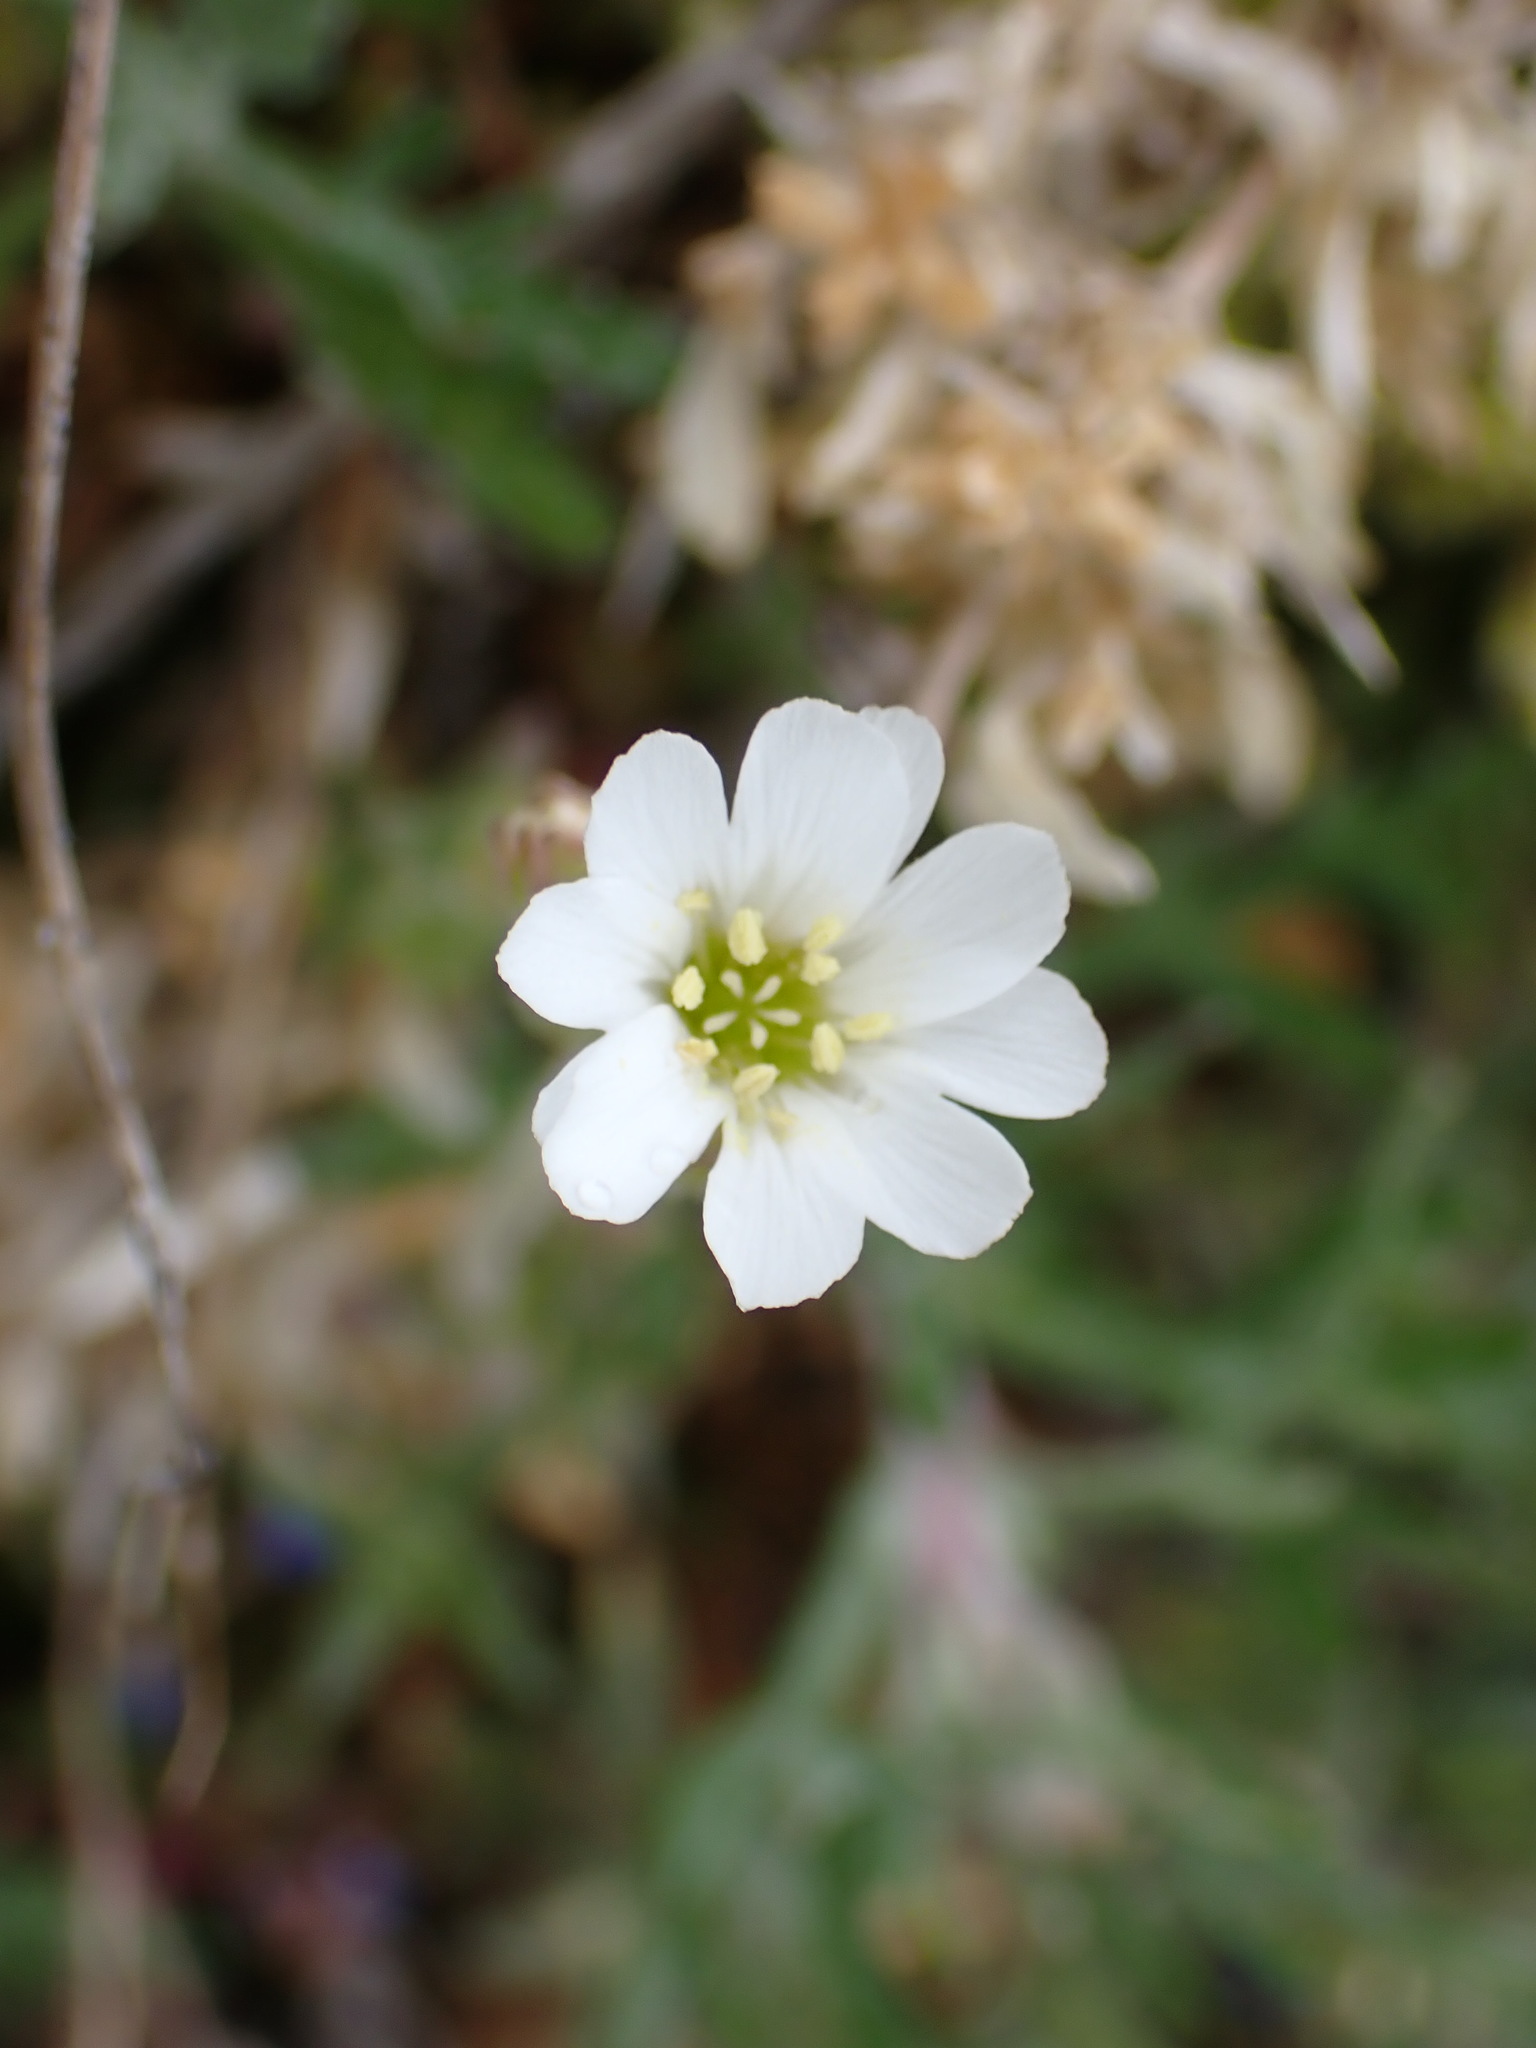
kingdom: Plantae
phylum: Tracheophyta
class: Magnoliopsida
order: Caryophyllales
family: Caryophyllaceae
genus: Cerastium
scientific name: Cerastium arvense
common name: Field mouse-ear
